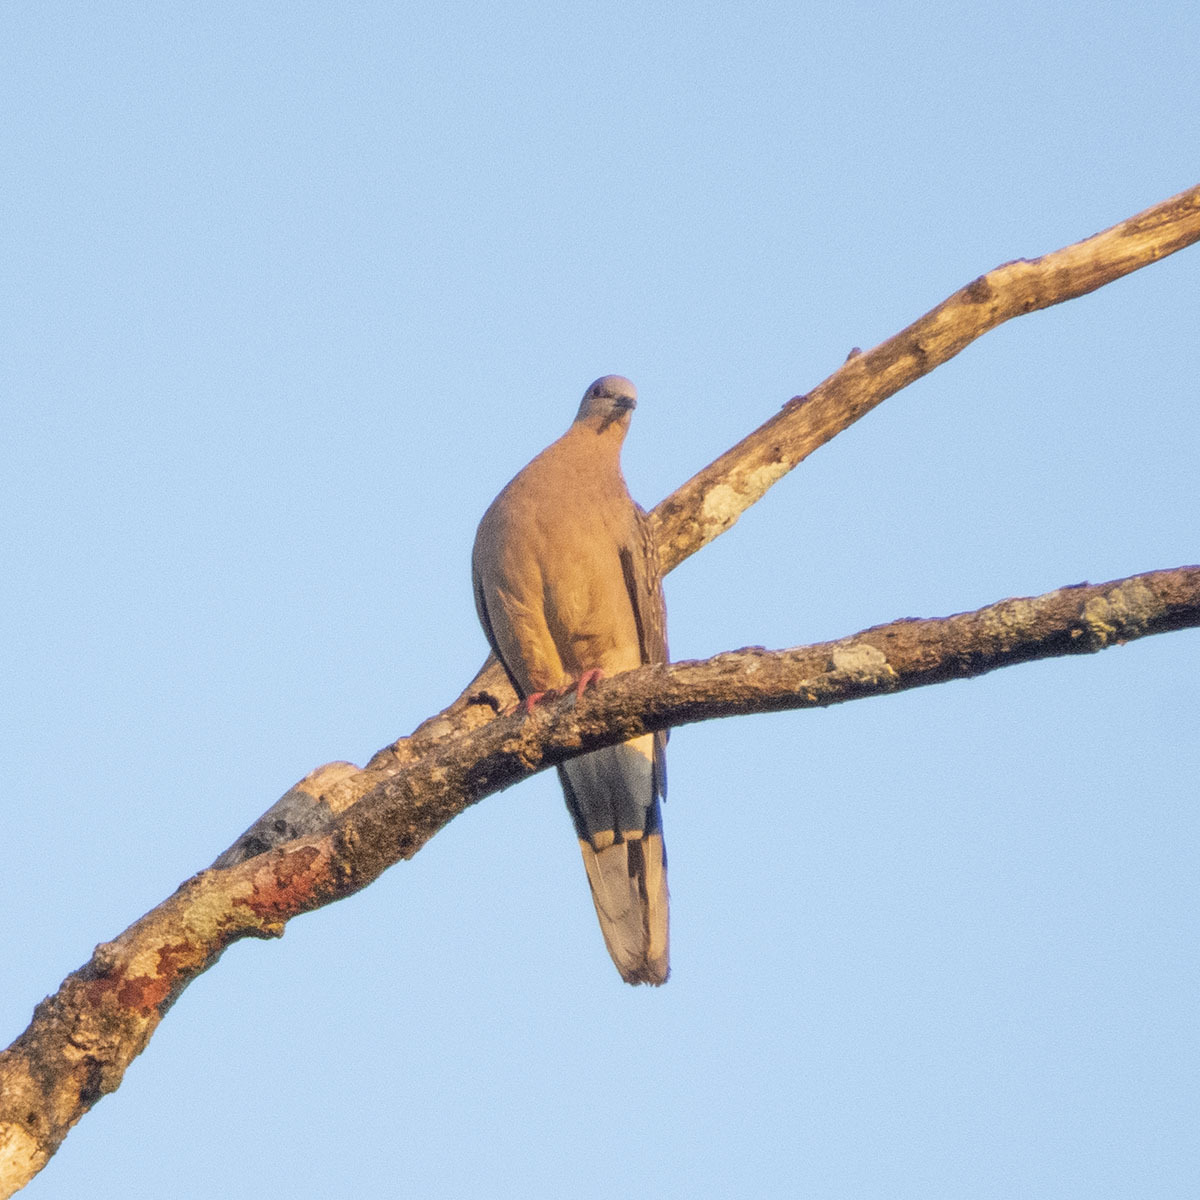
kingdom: Animalia
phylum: Chordata
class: Aves
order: Columbiformes
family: Columbidae
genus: Spilopelia
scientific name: Spilopelia chinensis
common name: Spotted dove
